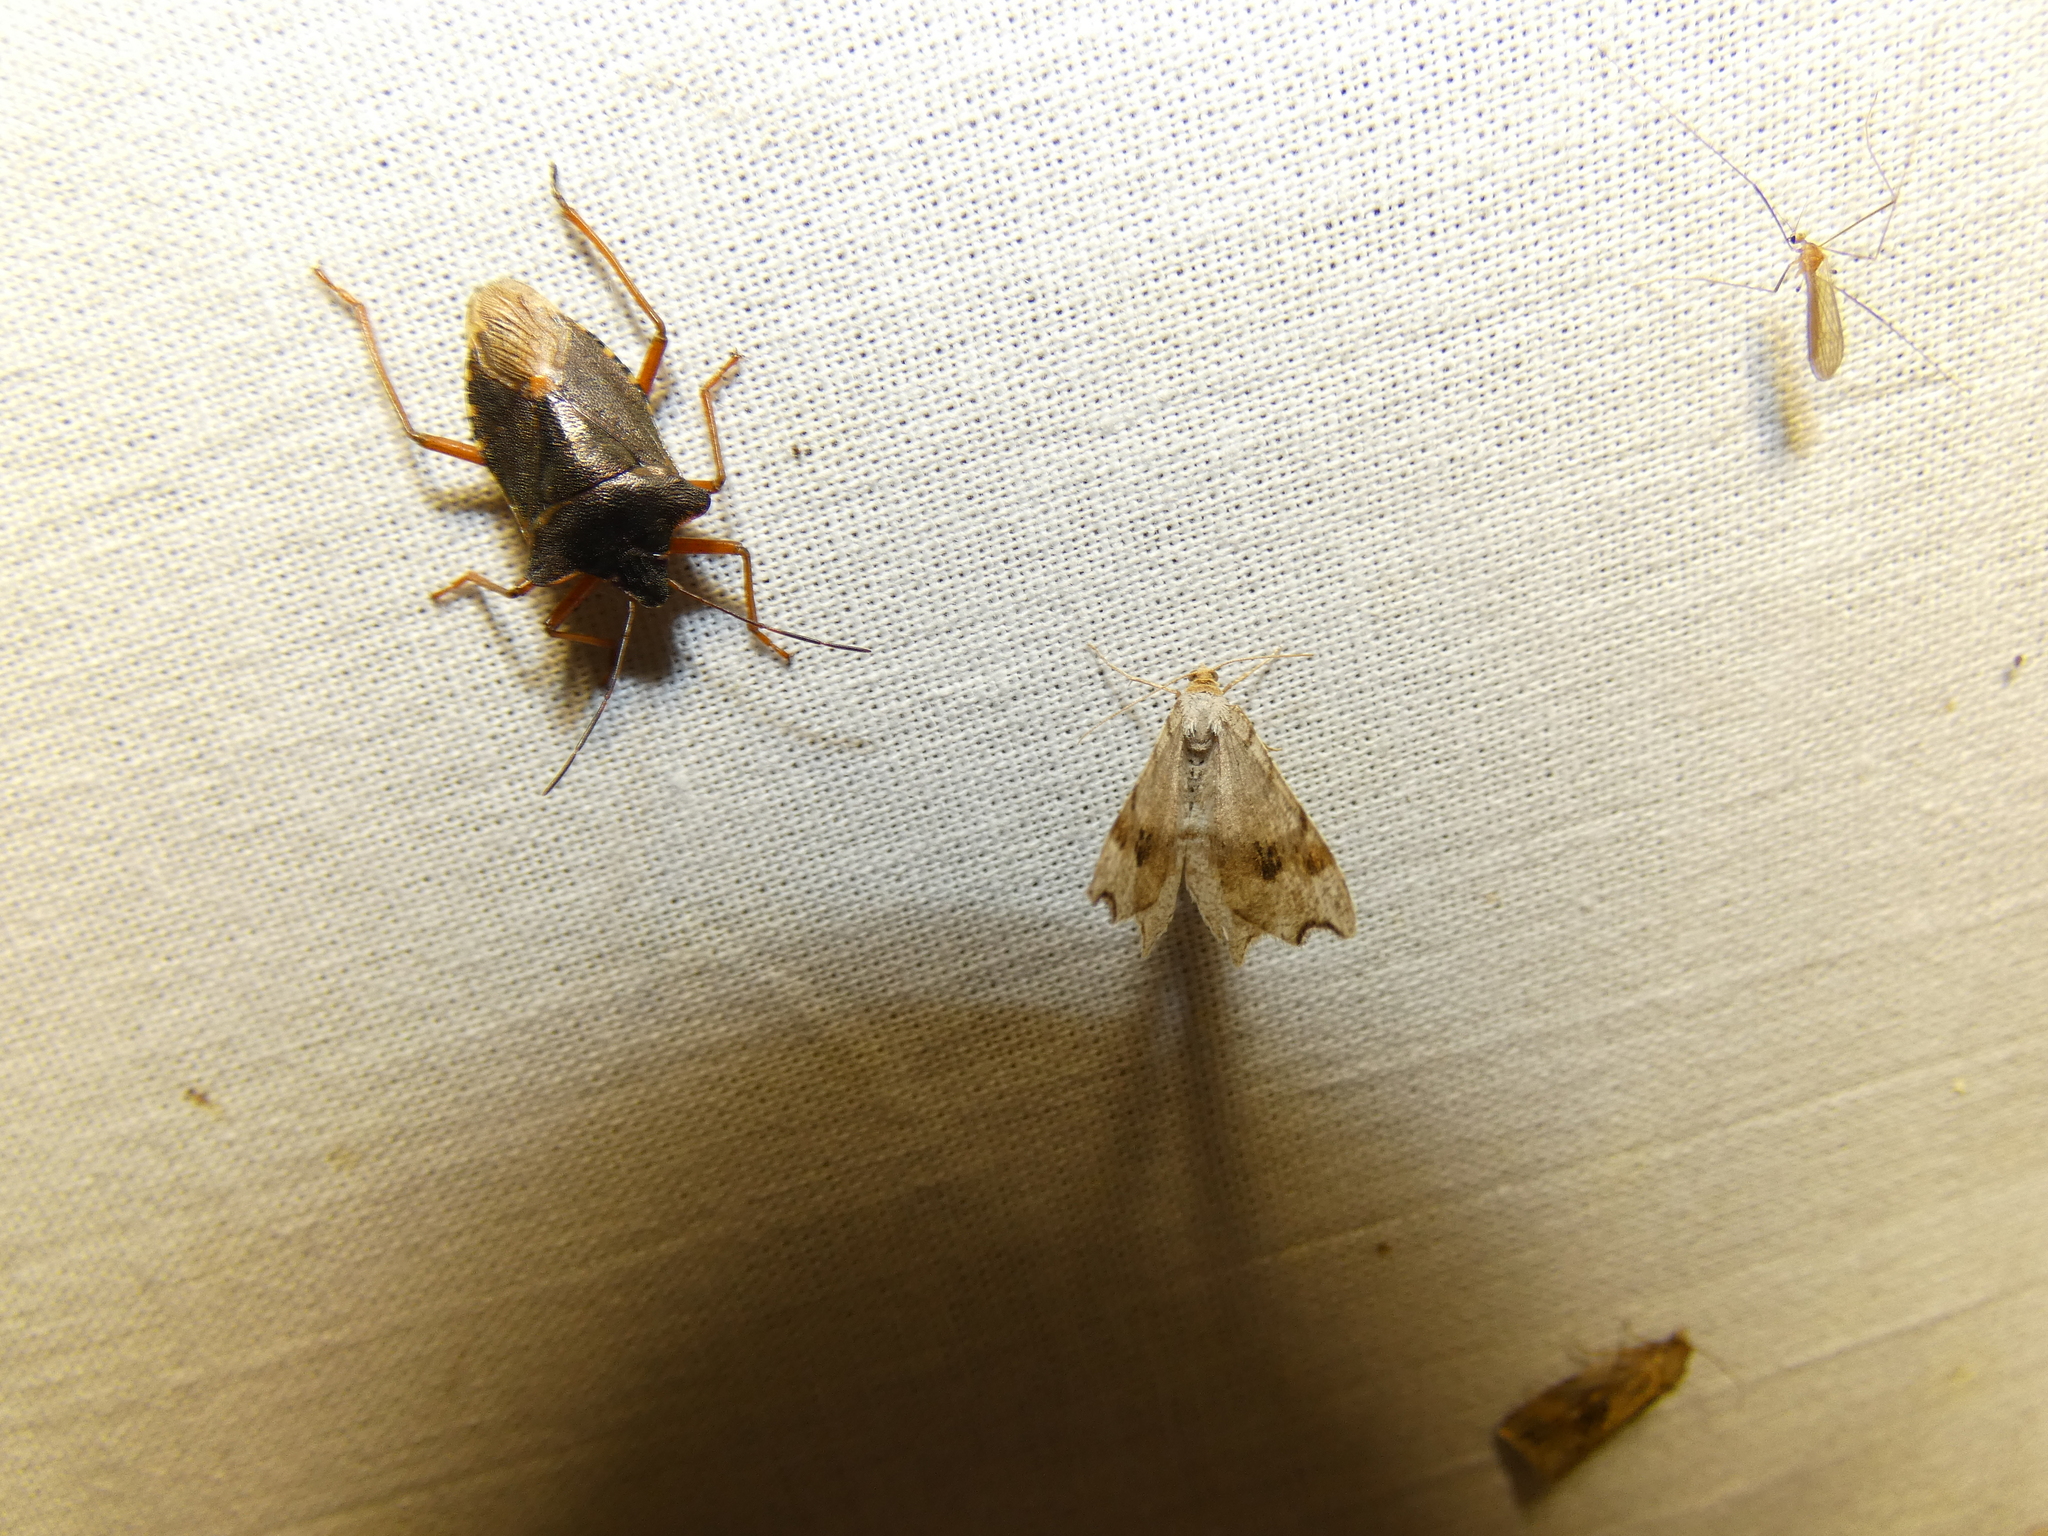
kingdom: Animalia
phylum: Arthropoda
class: Insecta
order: Hemiptera
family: Pentatomidae
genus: Pentatoma
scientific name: Pentatoma rufipes
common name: Forest bug
